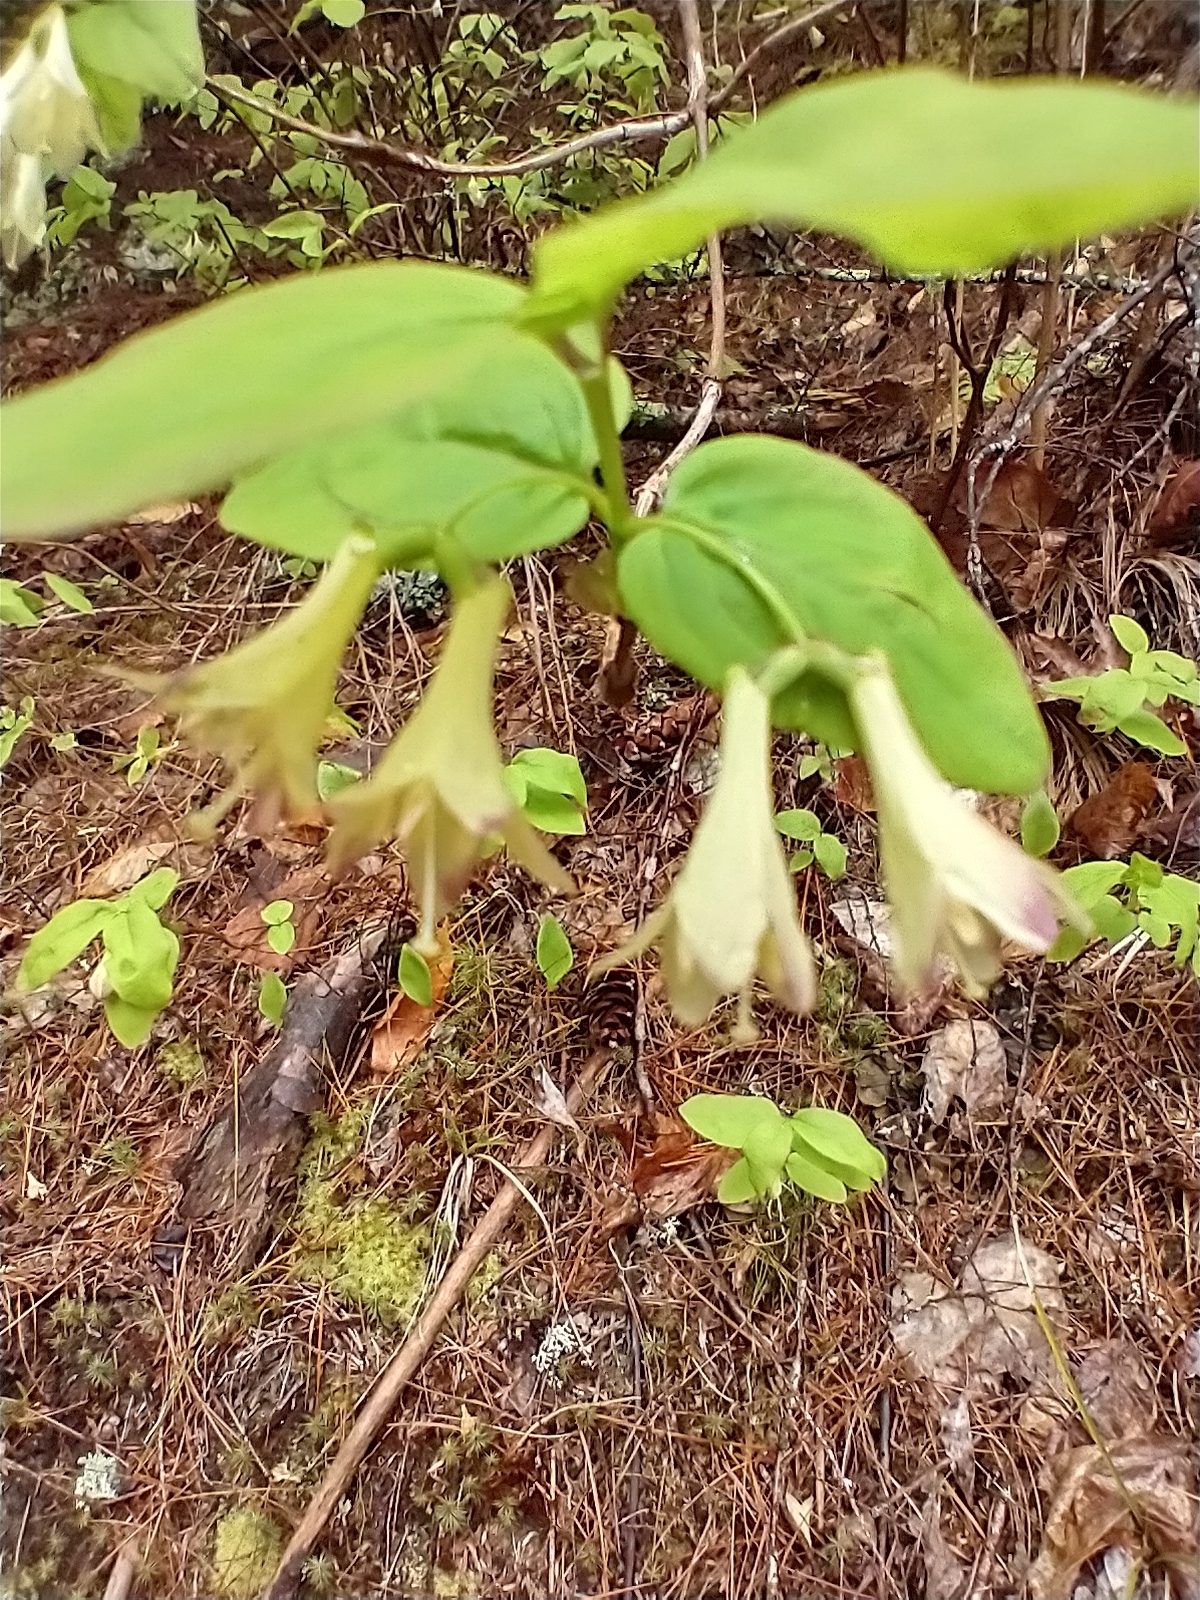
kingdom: Plantae
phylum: Tracheophyta
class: Magnoliopsida
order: Dipsacales
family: Caprifoliaceae
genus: Lonicera
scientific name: Lonicera canadensis
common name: American fly-honeysuckle
